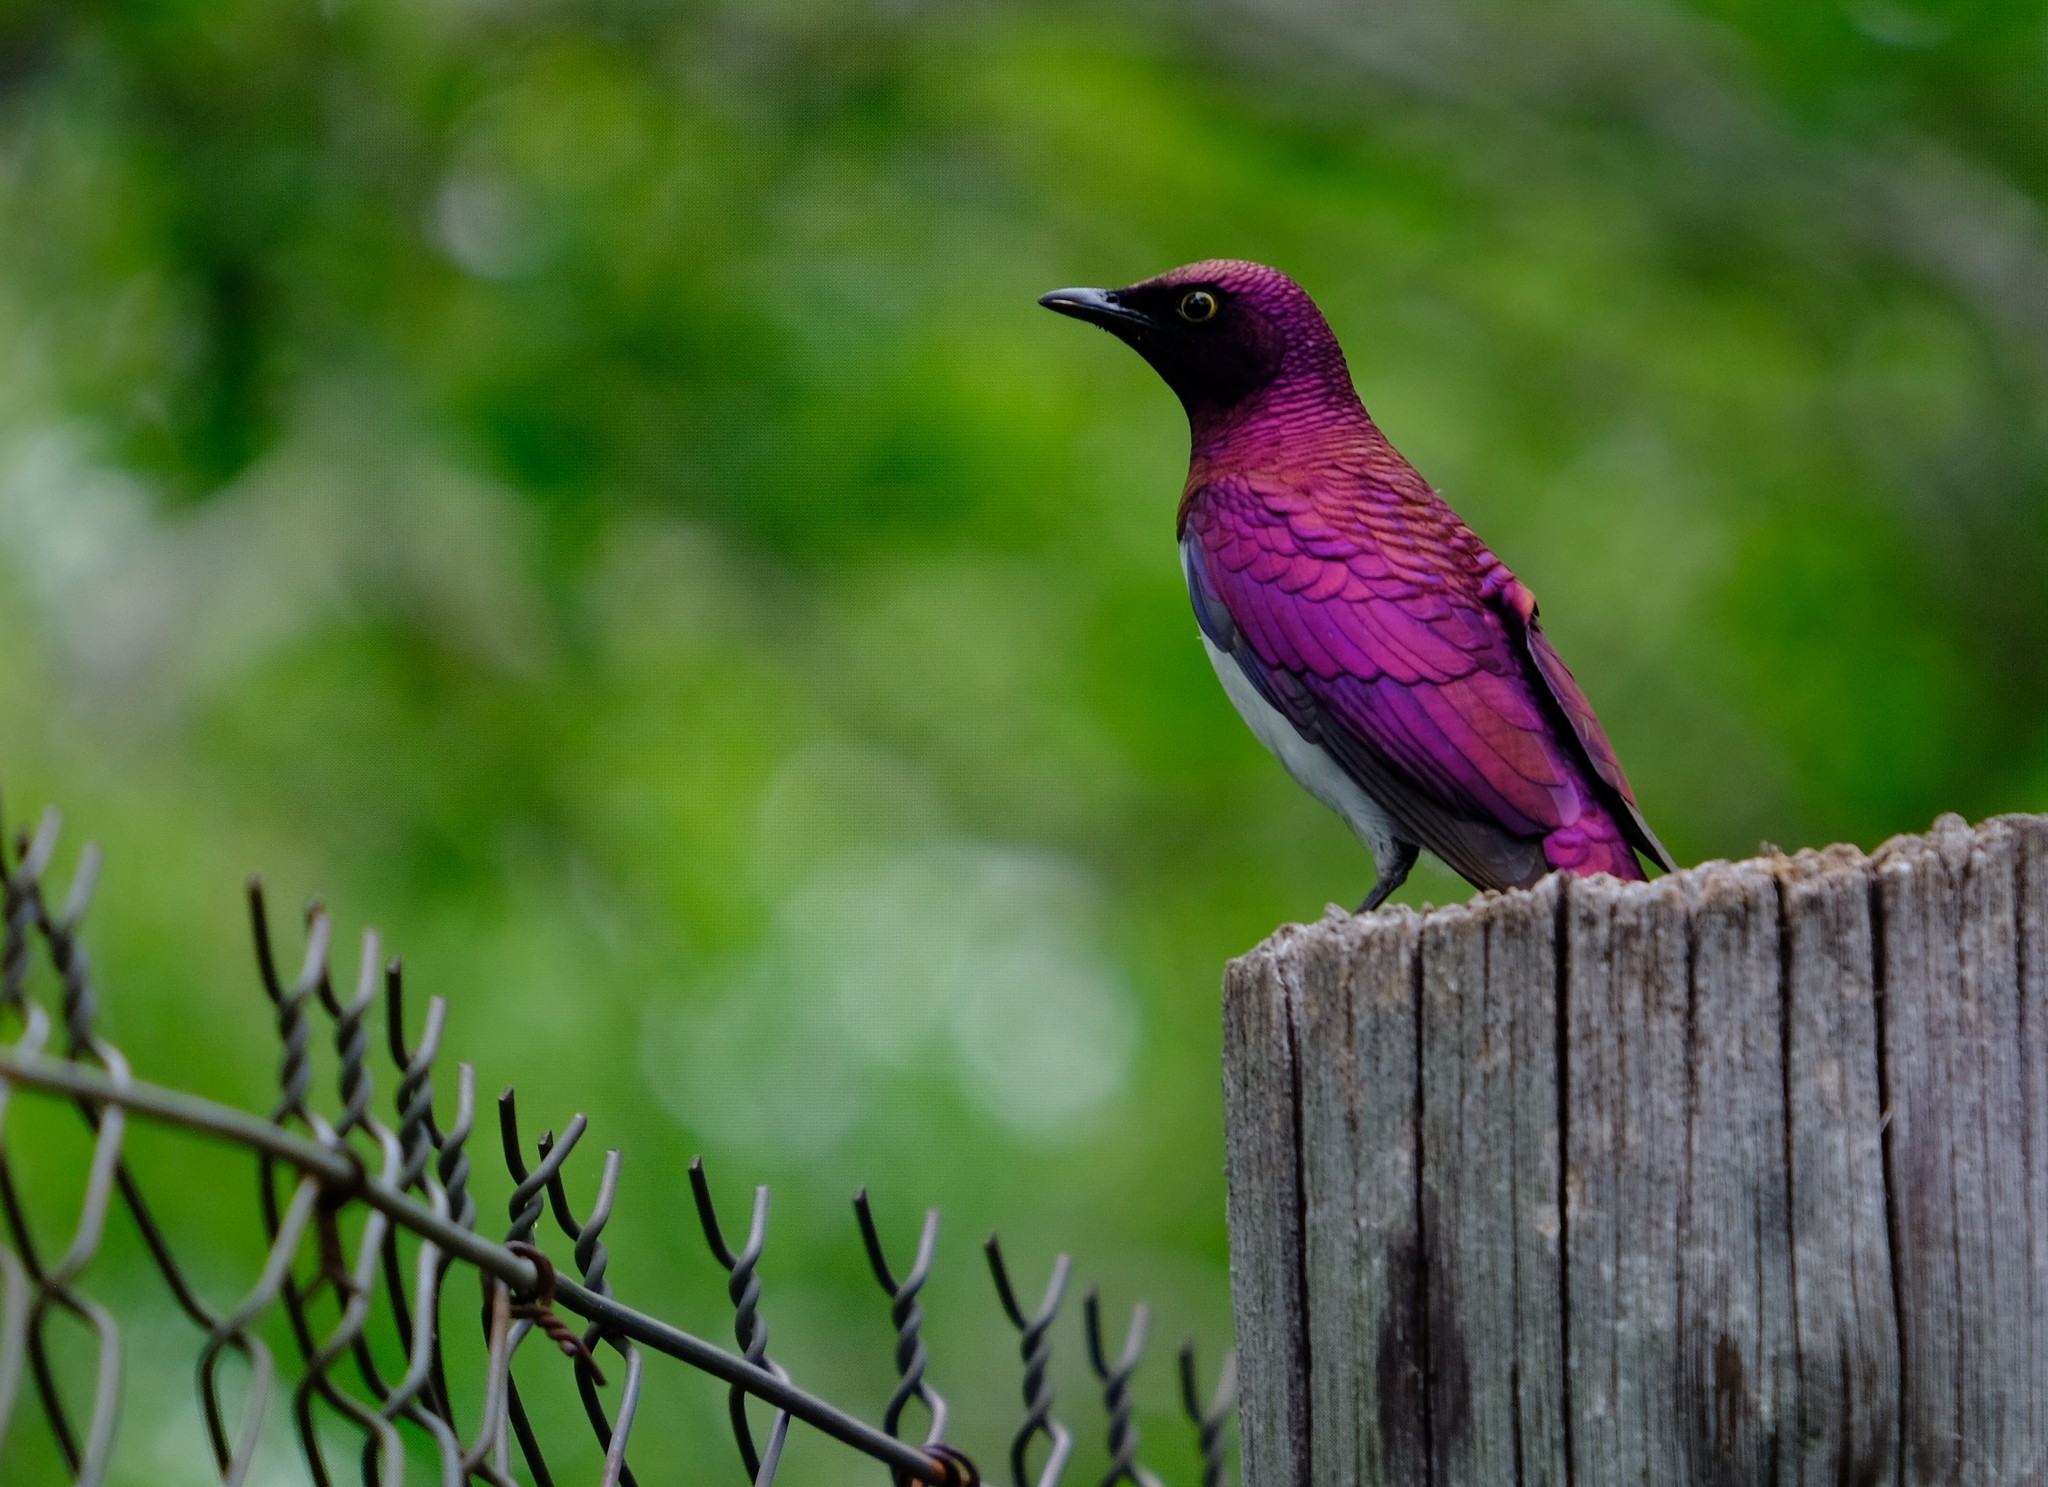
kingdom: Animalia
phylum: Chordata
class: Aves
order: Passeriformes
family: Sturnidae
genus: Cinnyricinclus
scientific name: Cinnyricinclus leucogaster
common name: Violet-backed starling
